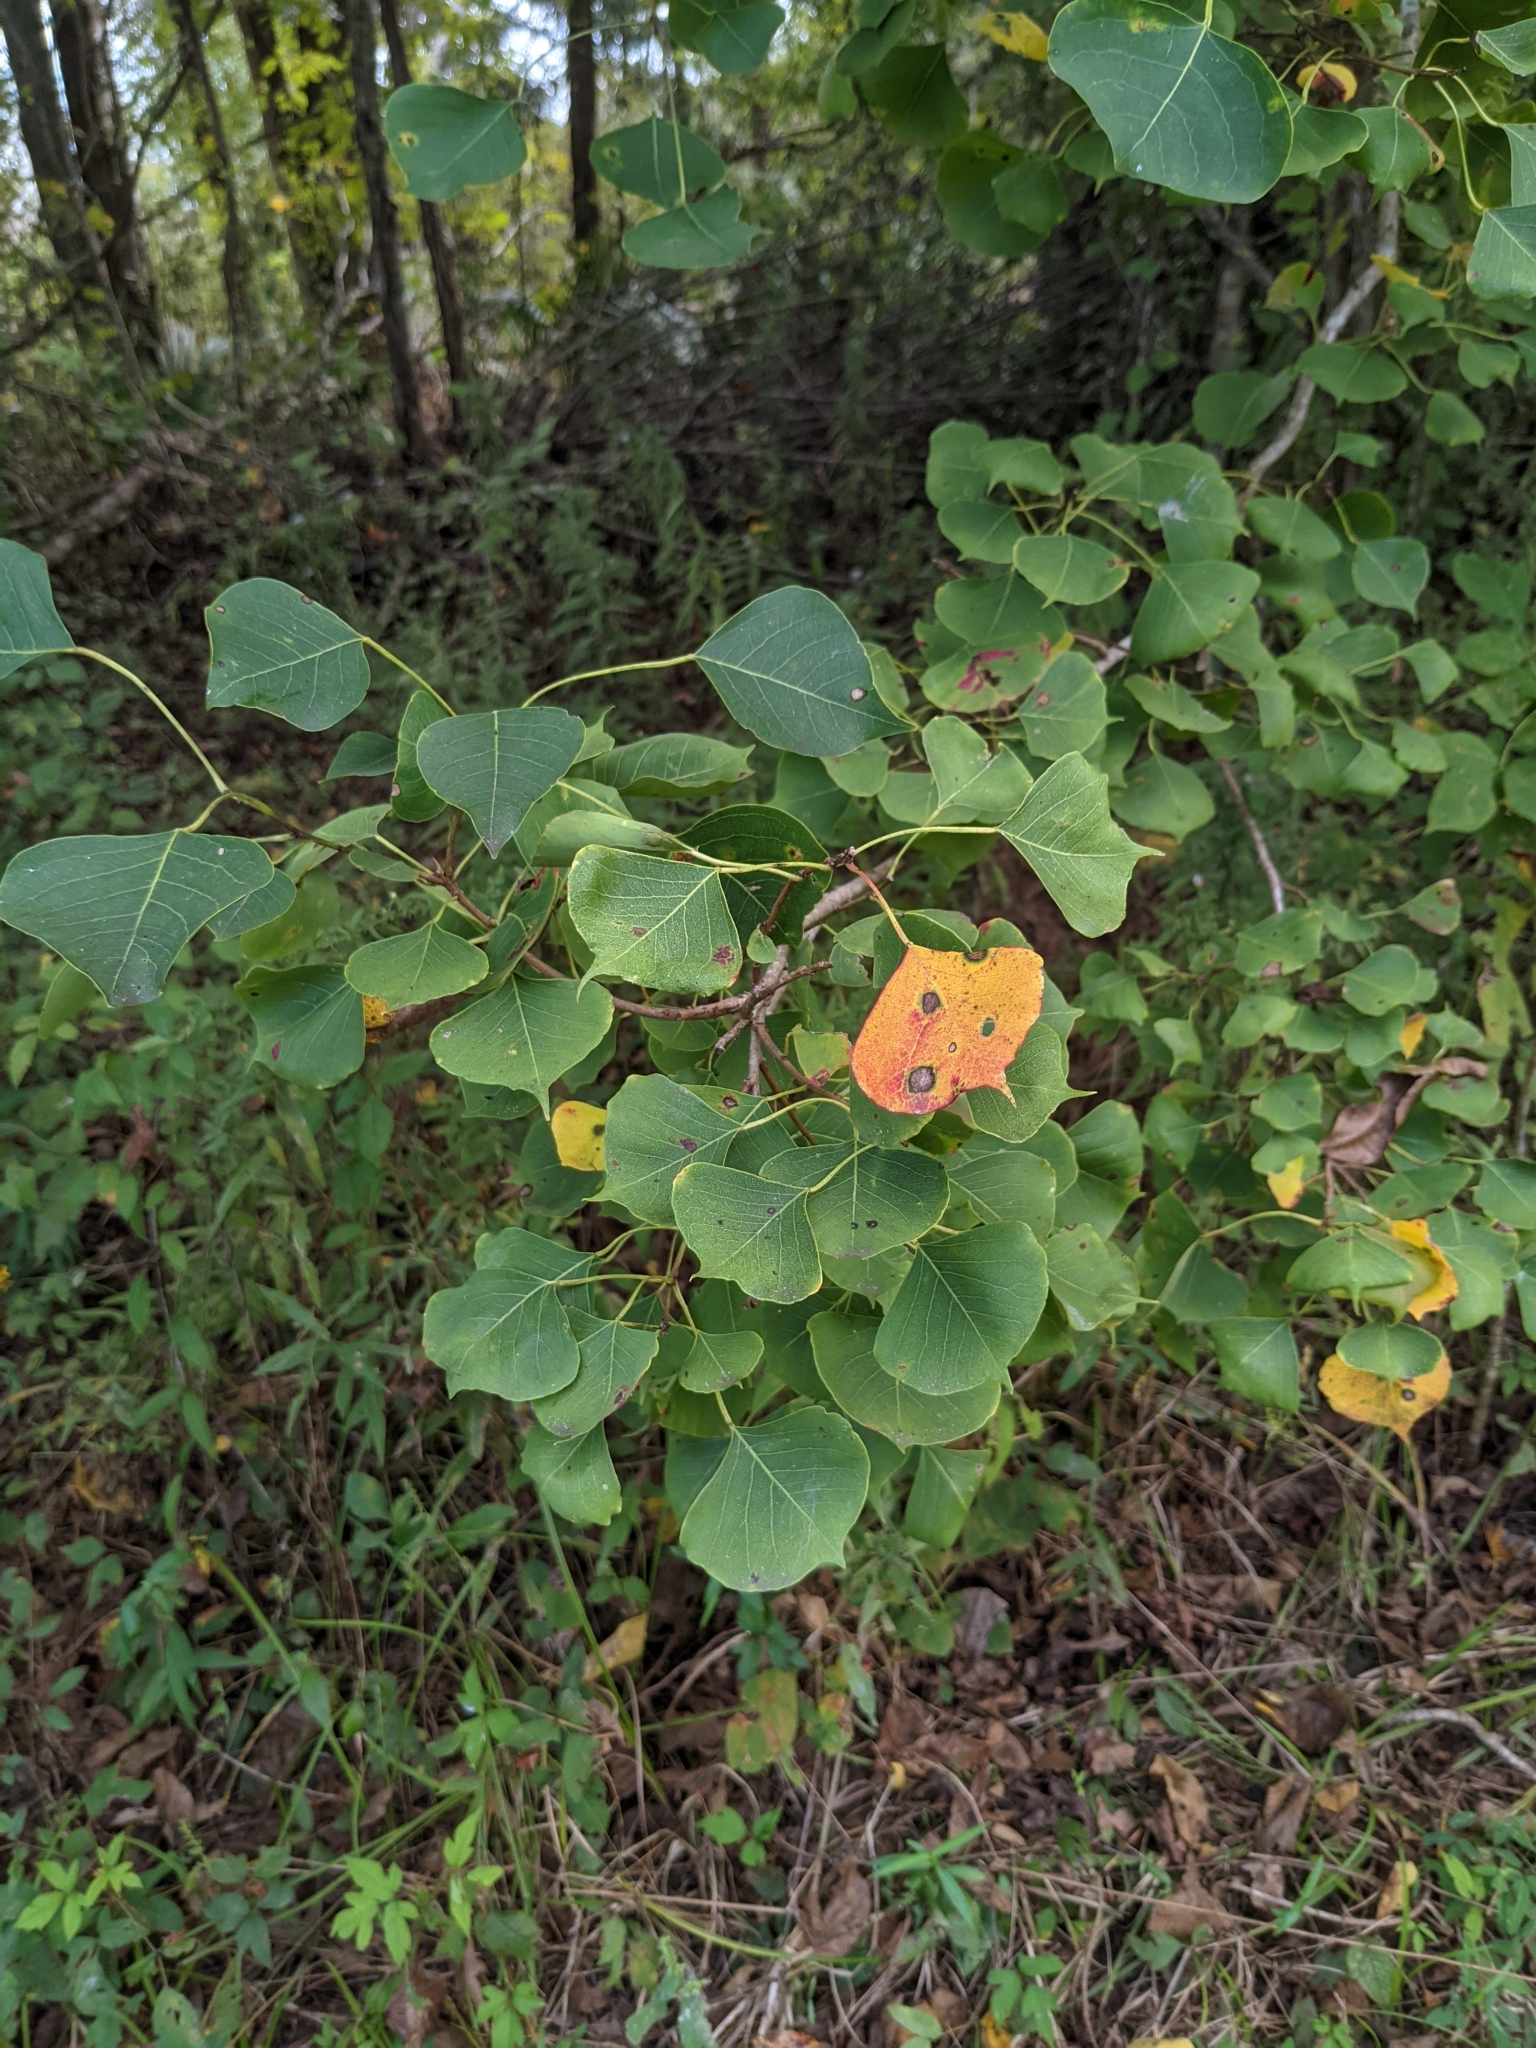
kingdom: Plantae
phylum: Tracheophyta
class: Magnoliopsida
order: Malpighiales
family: Euphorbiaceae
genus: Triadica
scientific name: Triadica sebifera
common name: Chinese tallow
